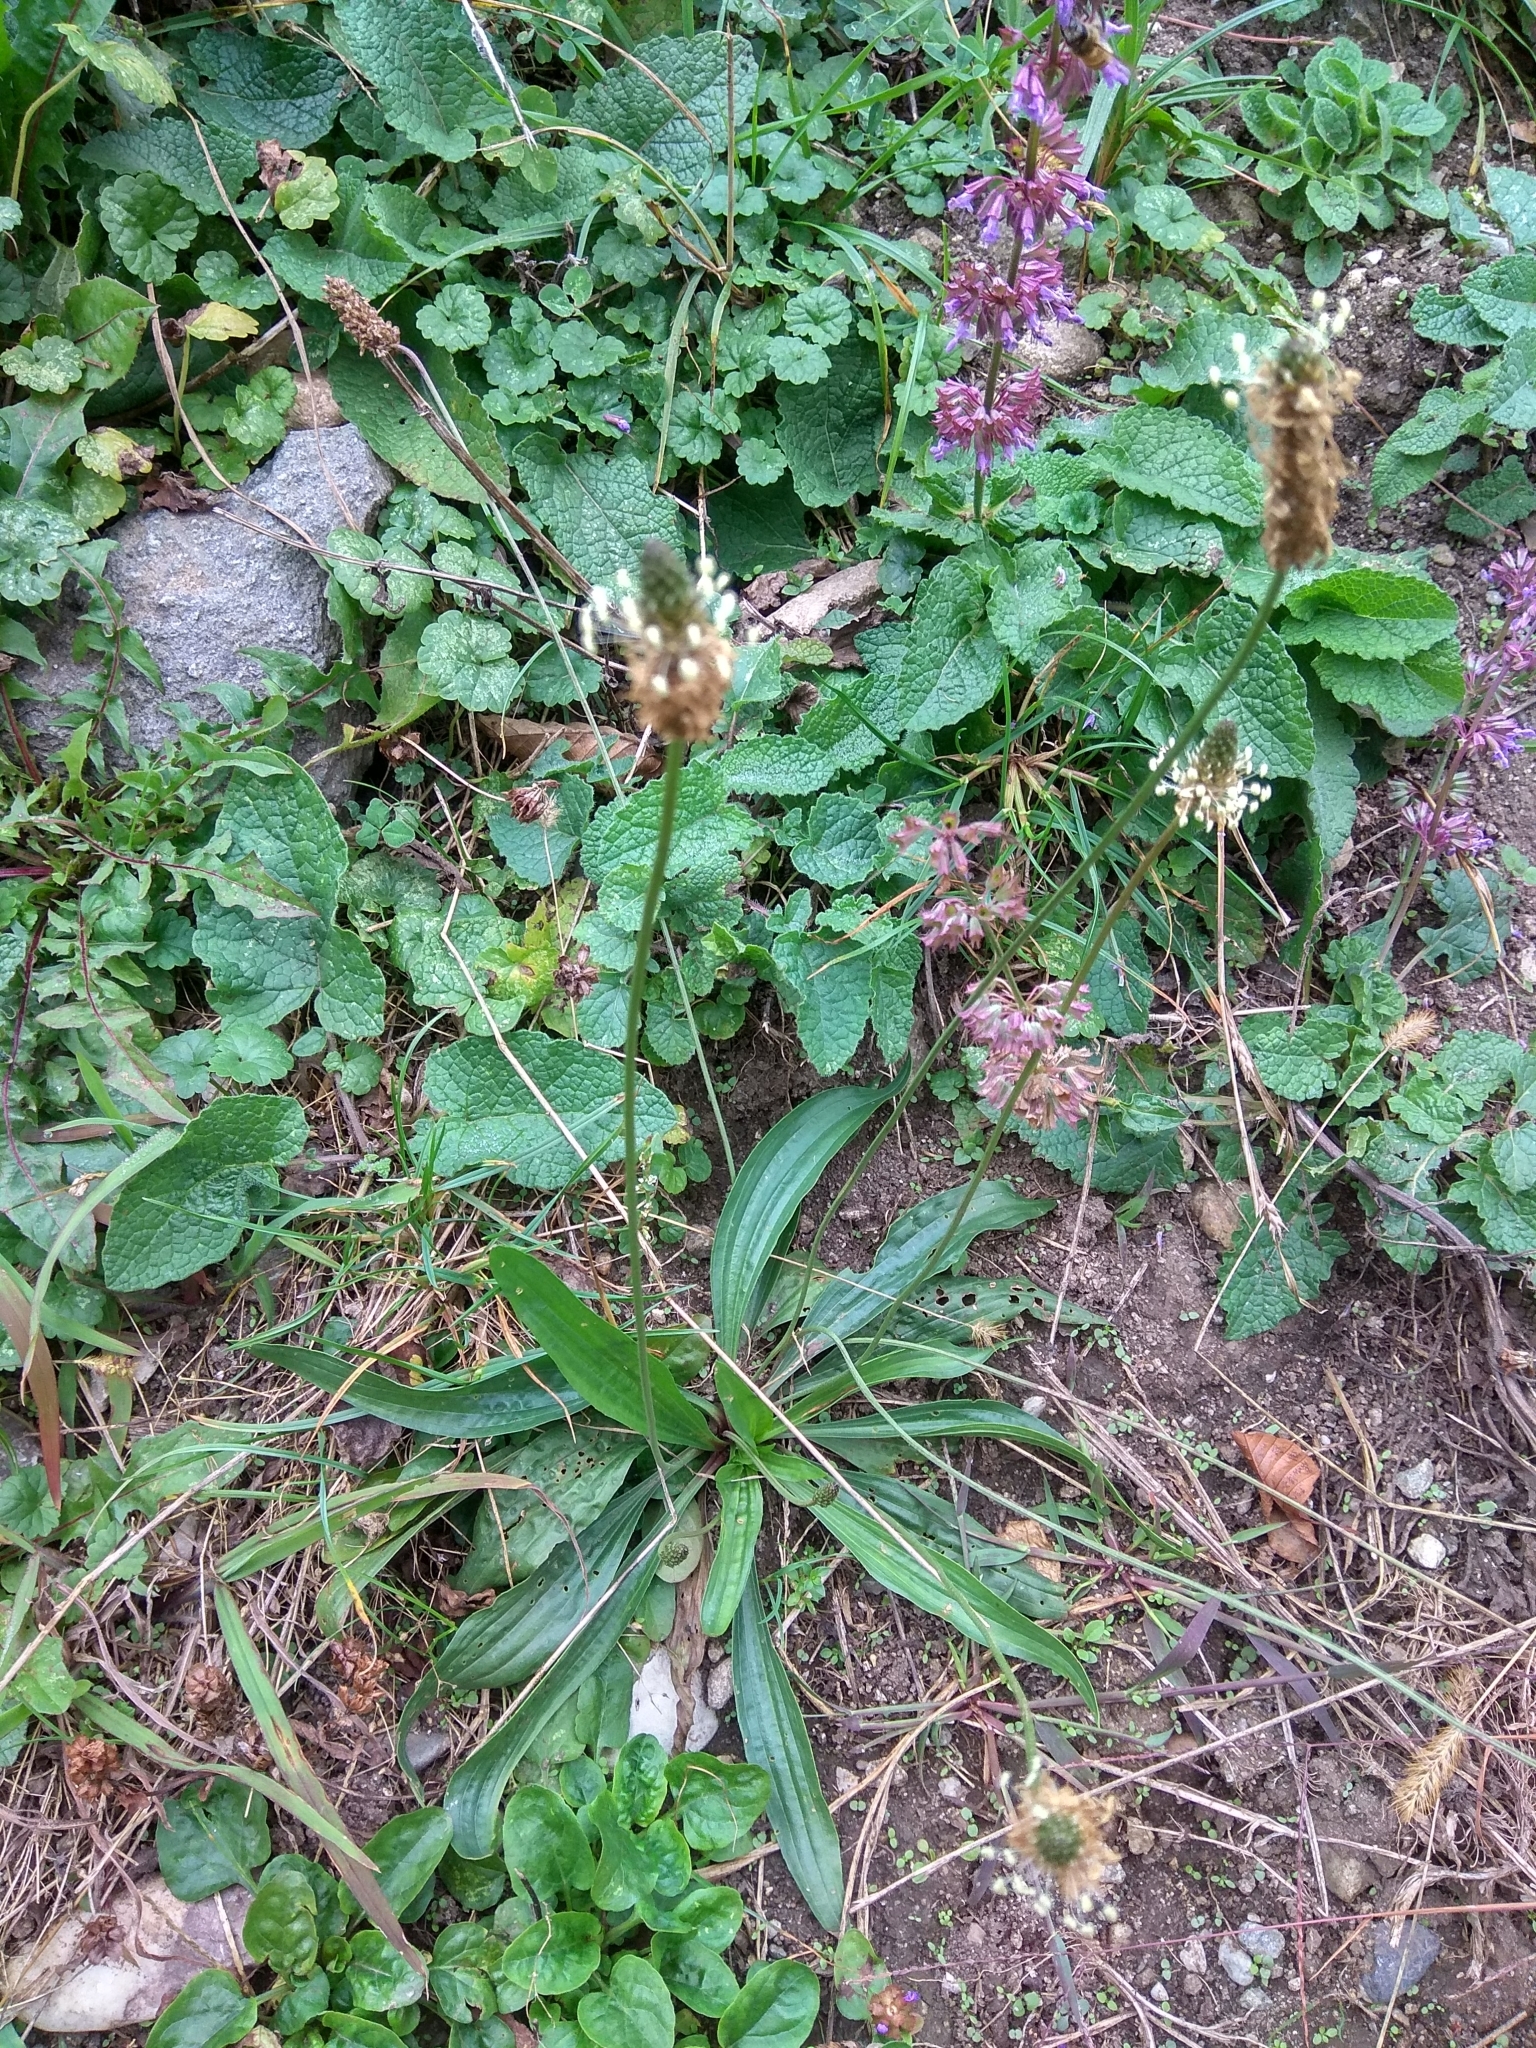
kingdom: Plantae
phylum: Tracheophyta
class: Magnoliopsida
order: Lamiales
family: Plantaginaceae
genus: Plantago
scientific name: Plantago lanceolata
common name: Ribwort plantain
